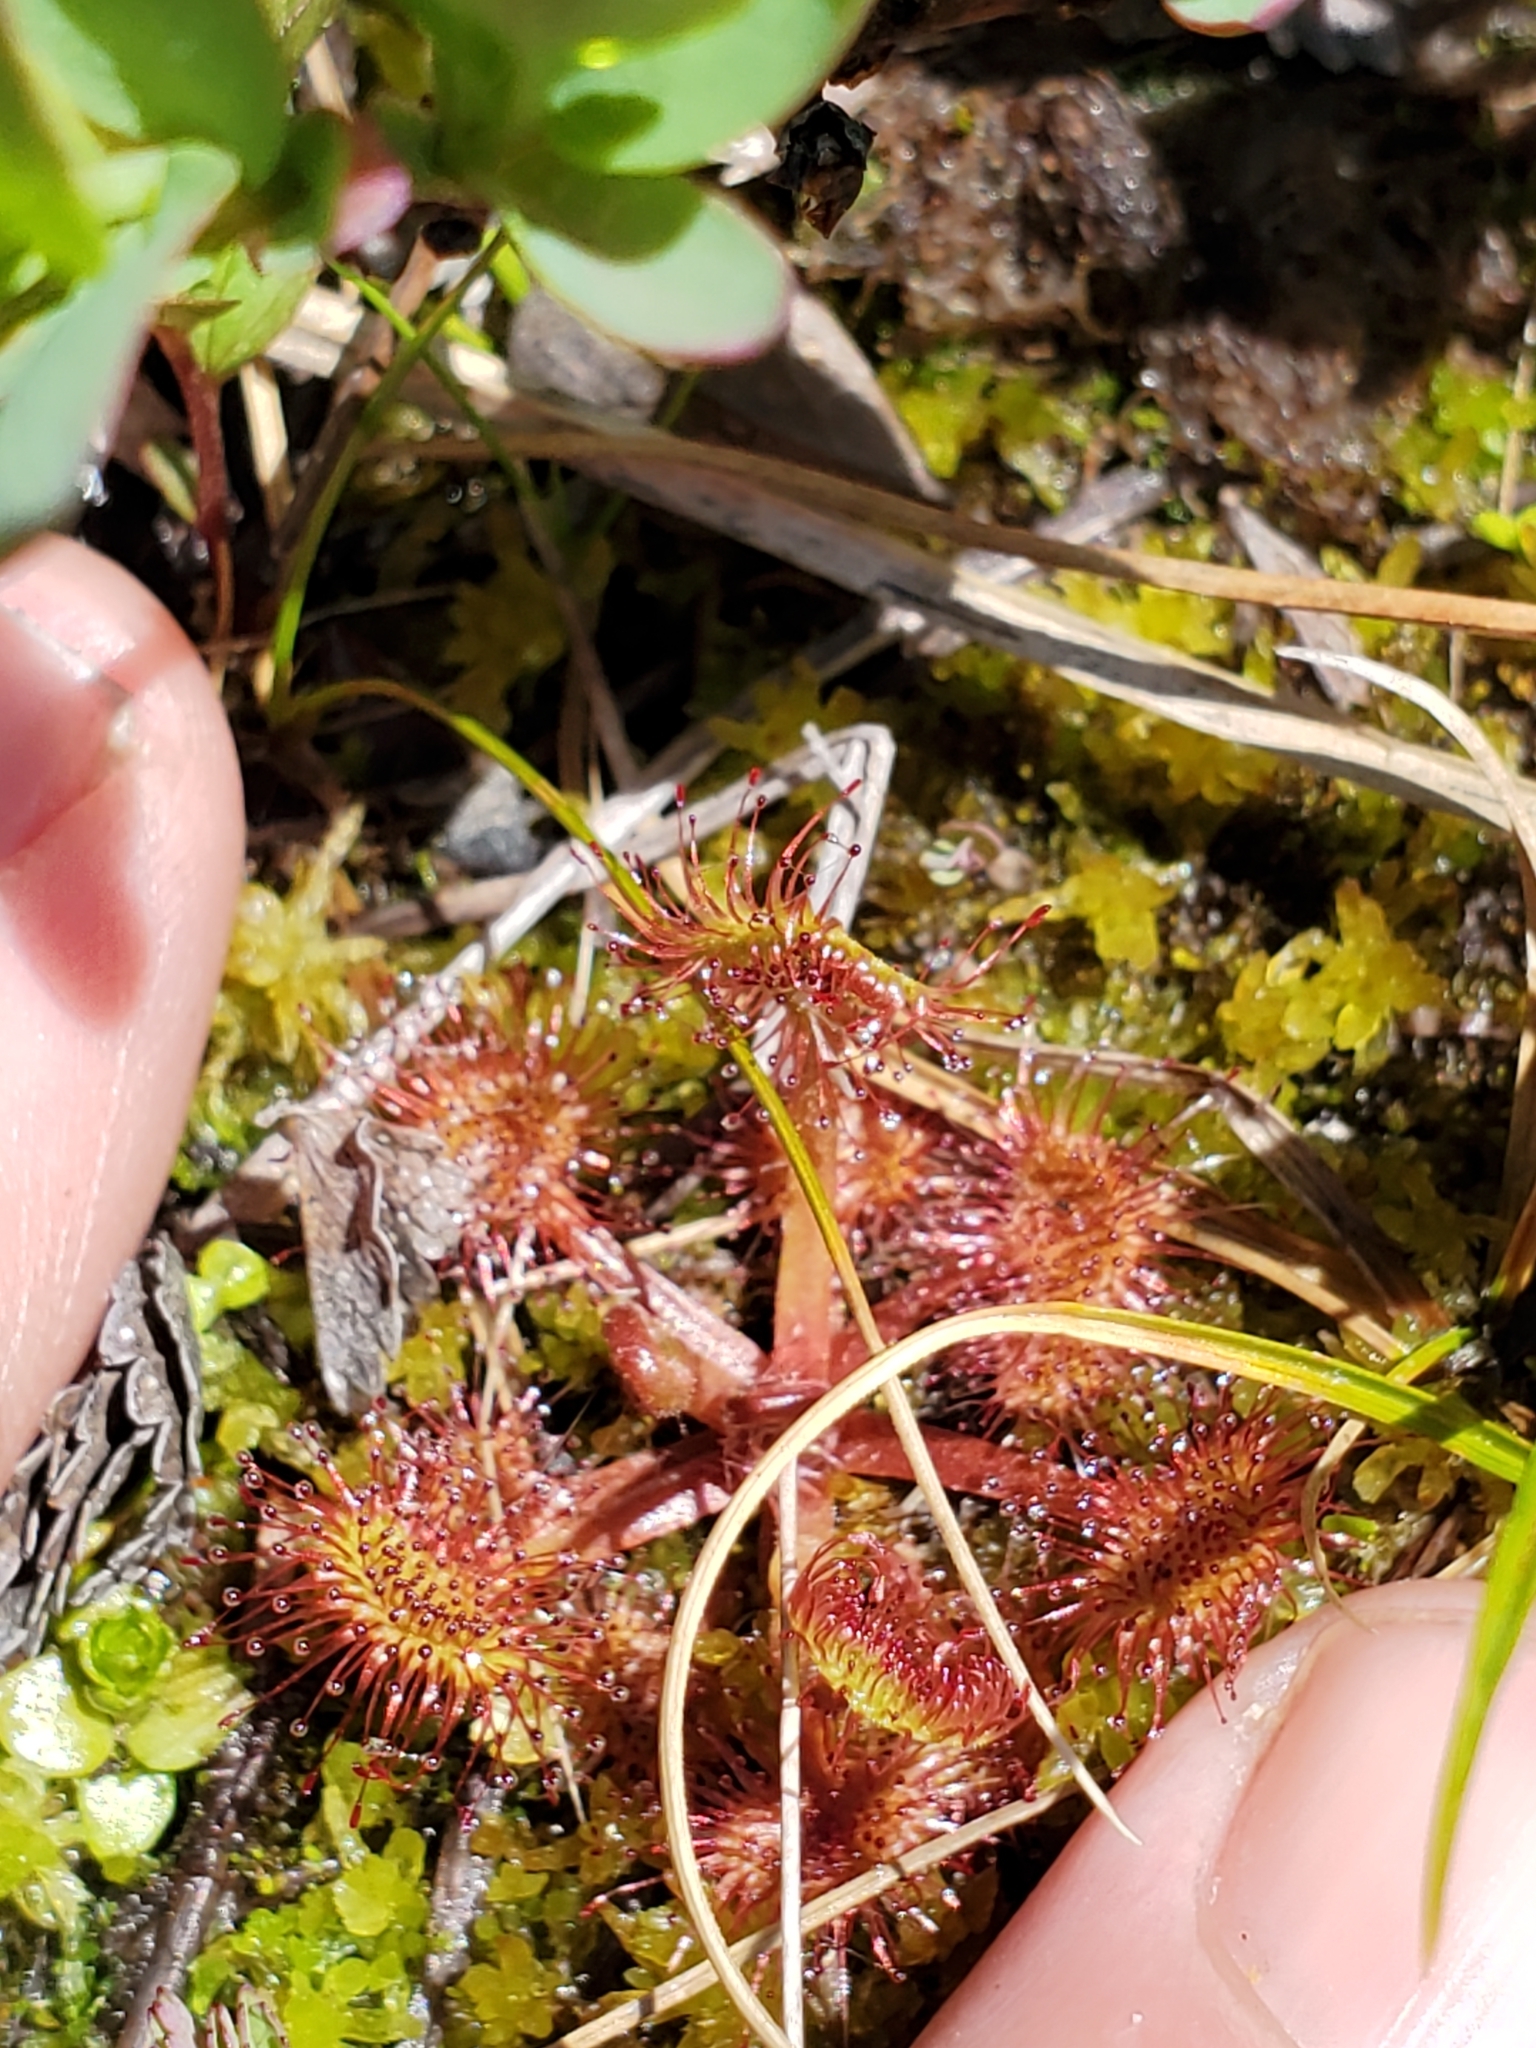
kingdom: Plantae
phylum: Tracheophyta
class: Magnoliopsida
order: Caryophyllales
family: Droseraceae
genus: Drosera
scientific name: Drosera rotundifolia
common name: Round-leaved sundew
